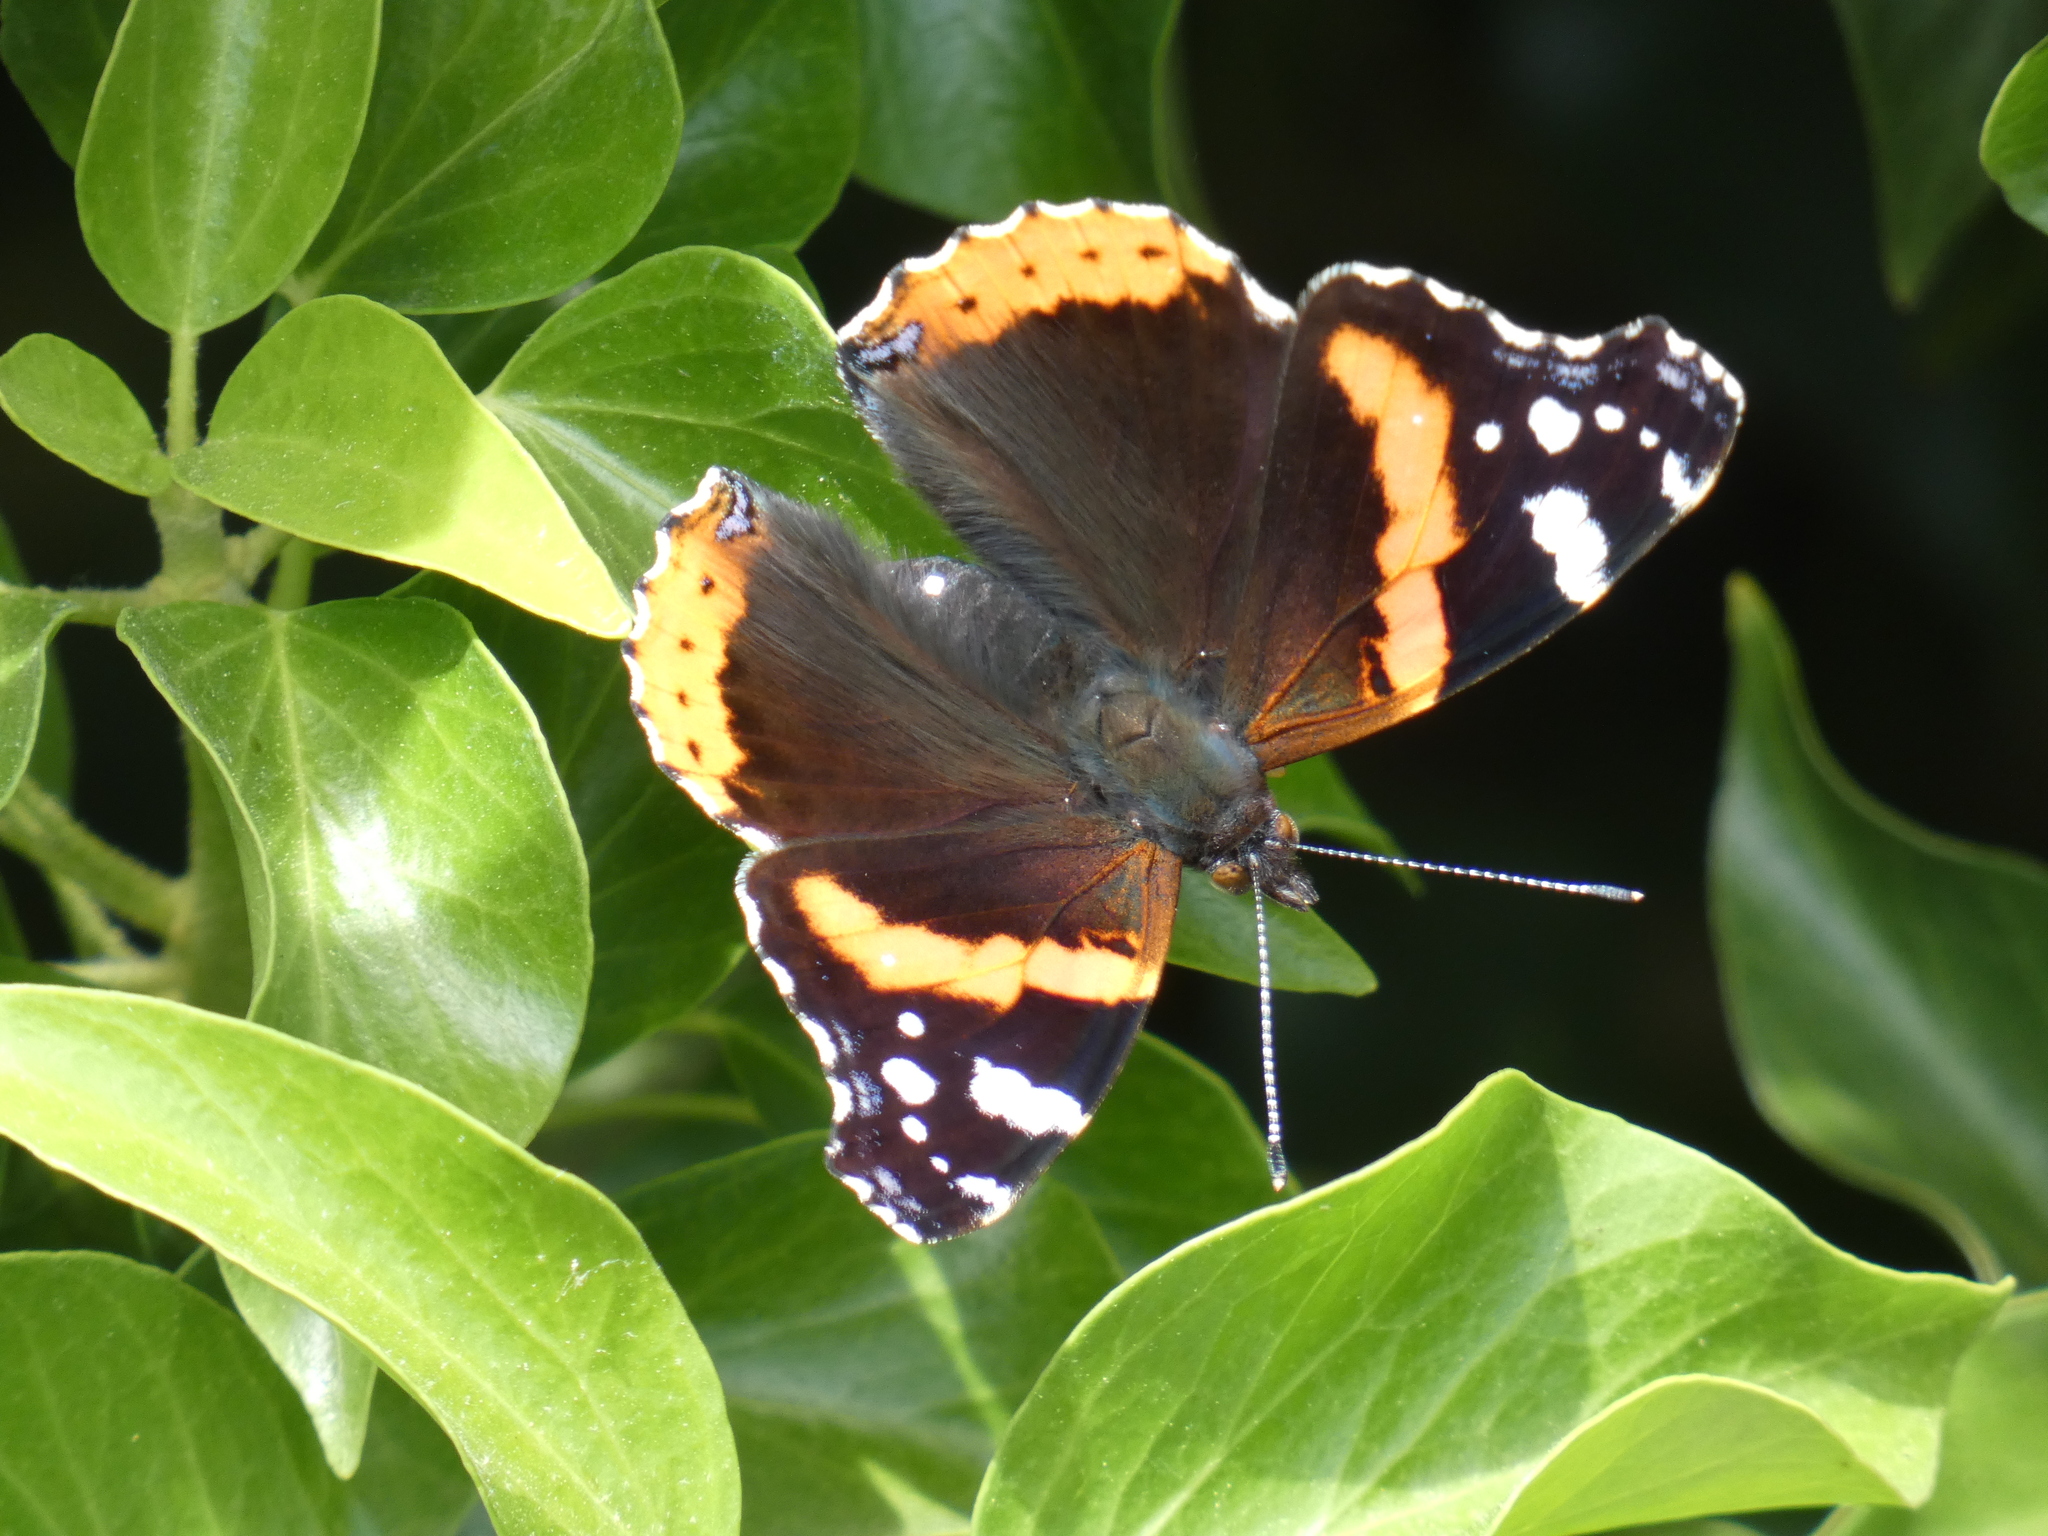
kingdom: Animalia
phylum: Arthropoda
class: Insecta
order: Lepidoptera
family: Nymphalidae
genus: Vanessa
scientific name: Vanessa atalanta
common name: Red admiral
